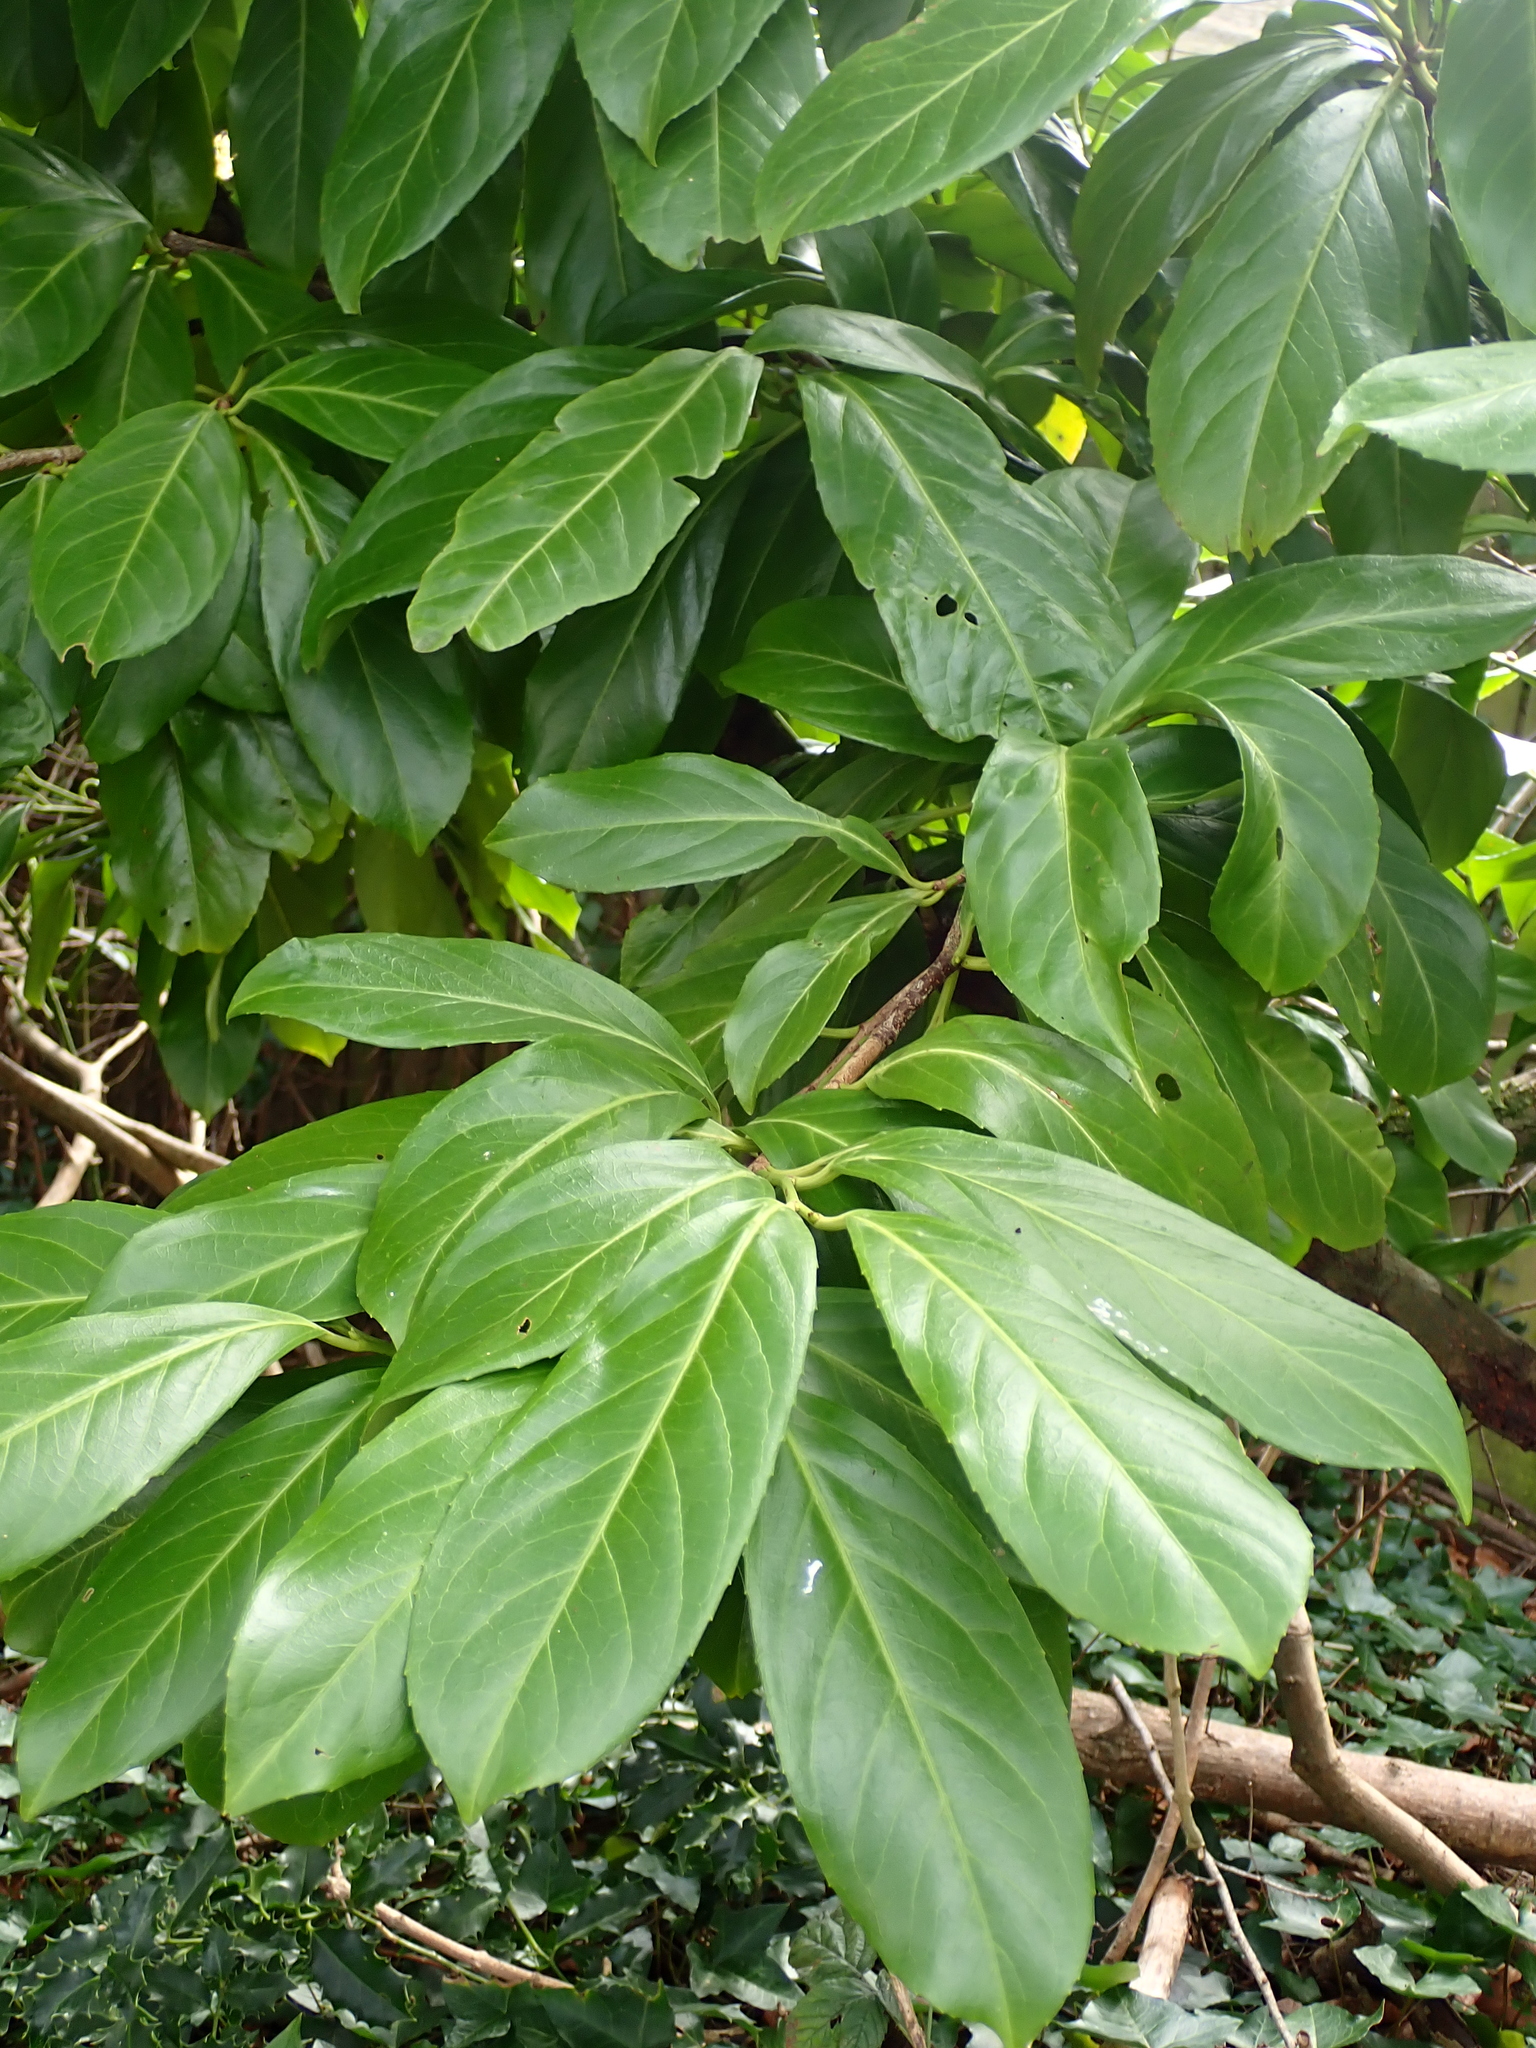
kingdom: Plantae
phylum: Tracheophyta
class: Magnoliopsida
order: Rosales
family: Rosaceae
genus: Prunus
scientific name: Prunus laurocerasus
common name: Cherry laurel
